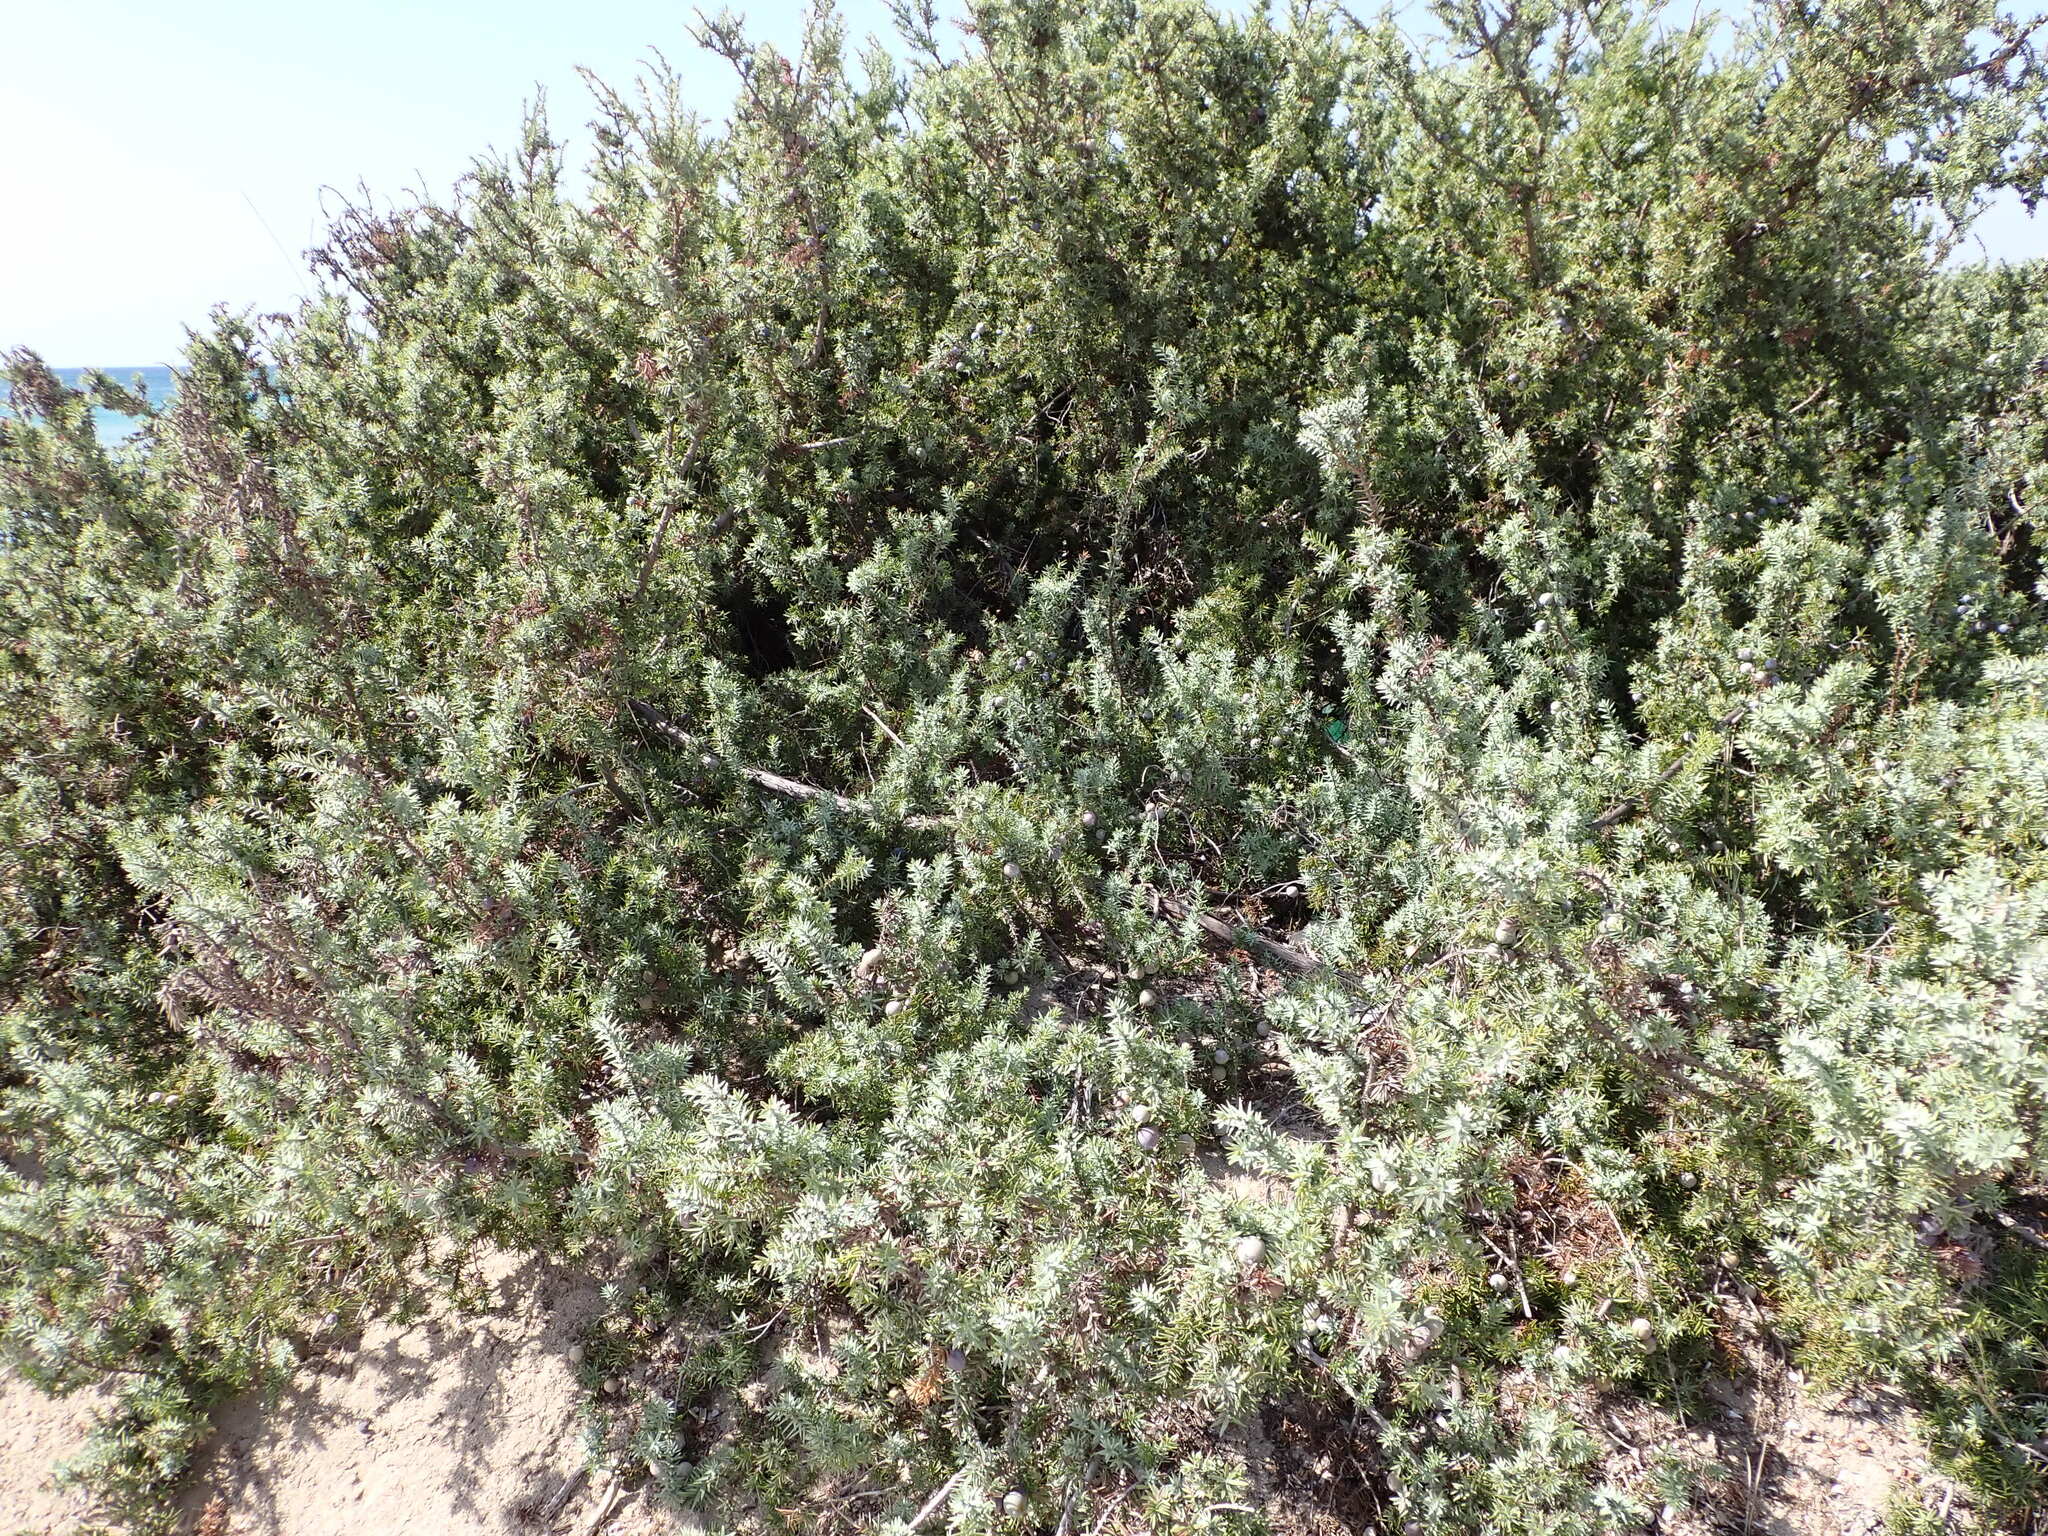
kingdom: Plantae
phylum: Tracheophyta
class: Pinopsida
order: Pinales
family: Cupressaceae
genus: Juniperus
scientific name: Juniperus oxycedrus
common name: Prickly juniper
